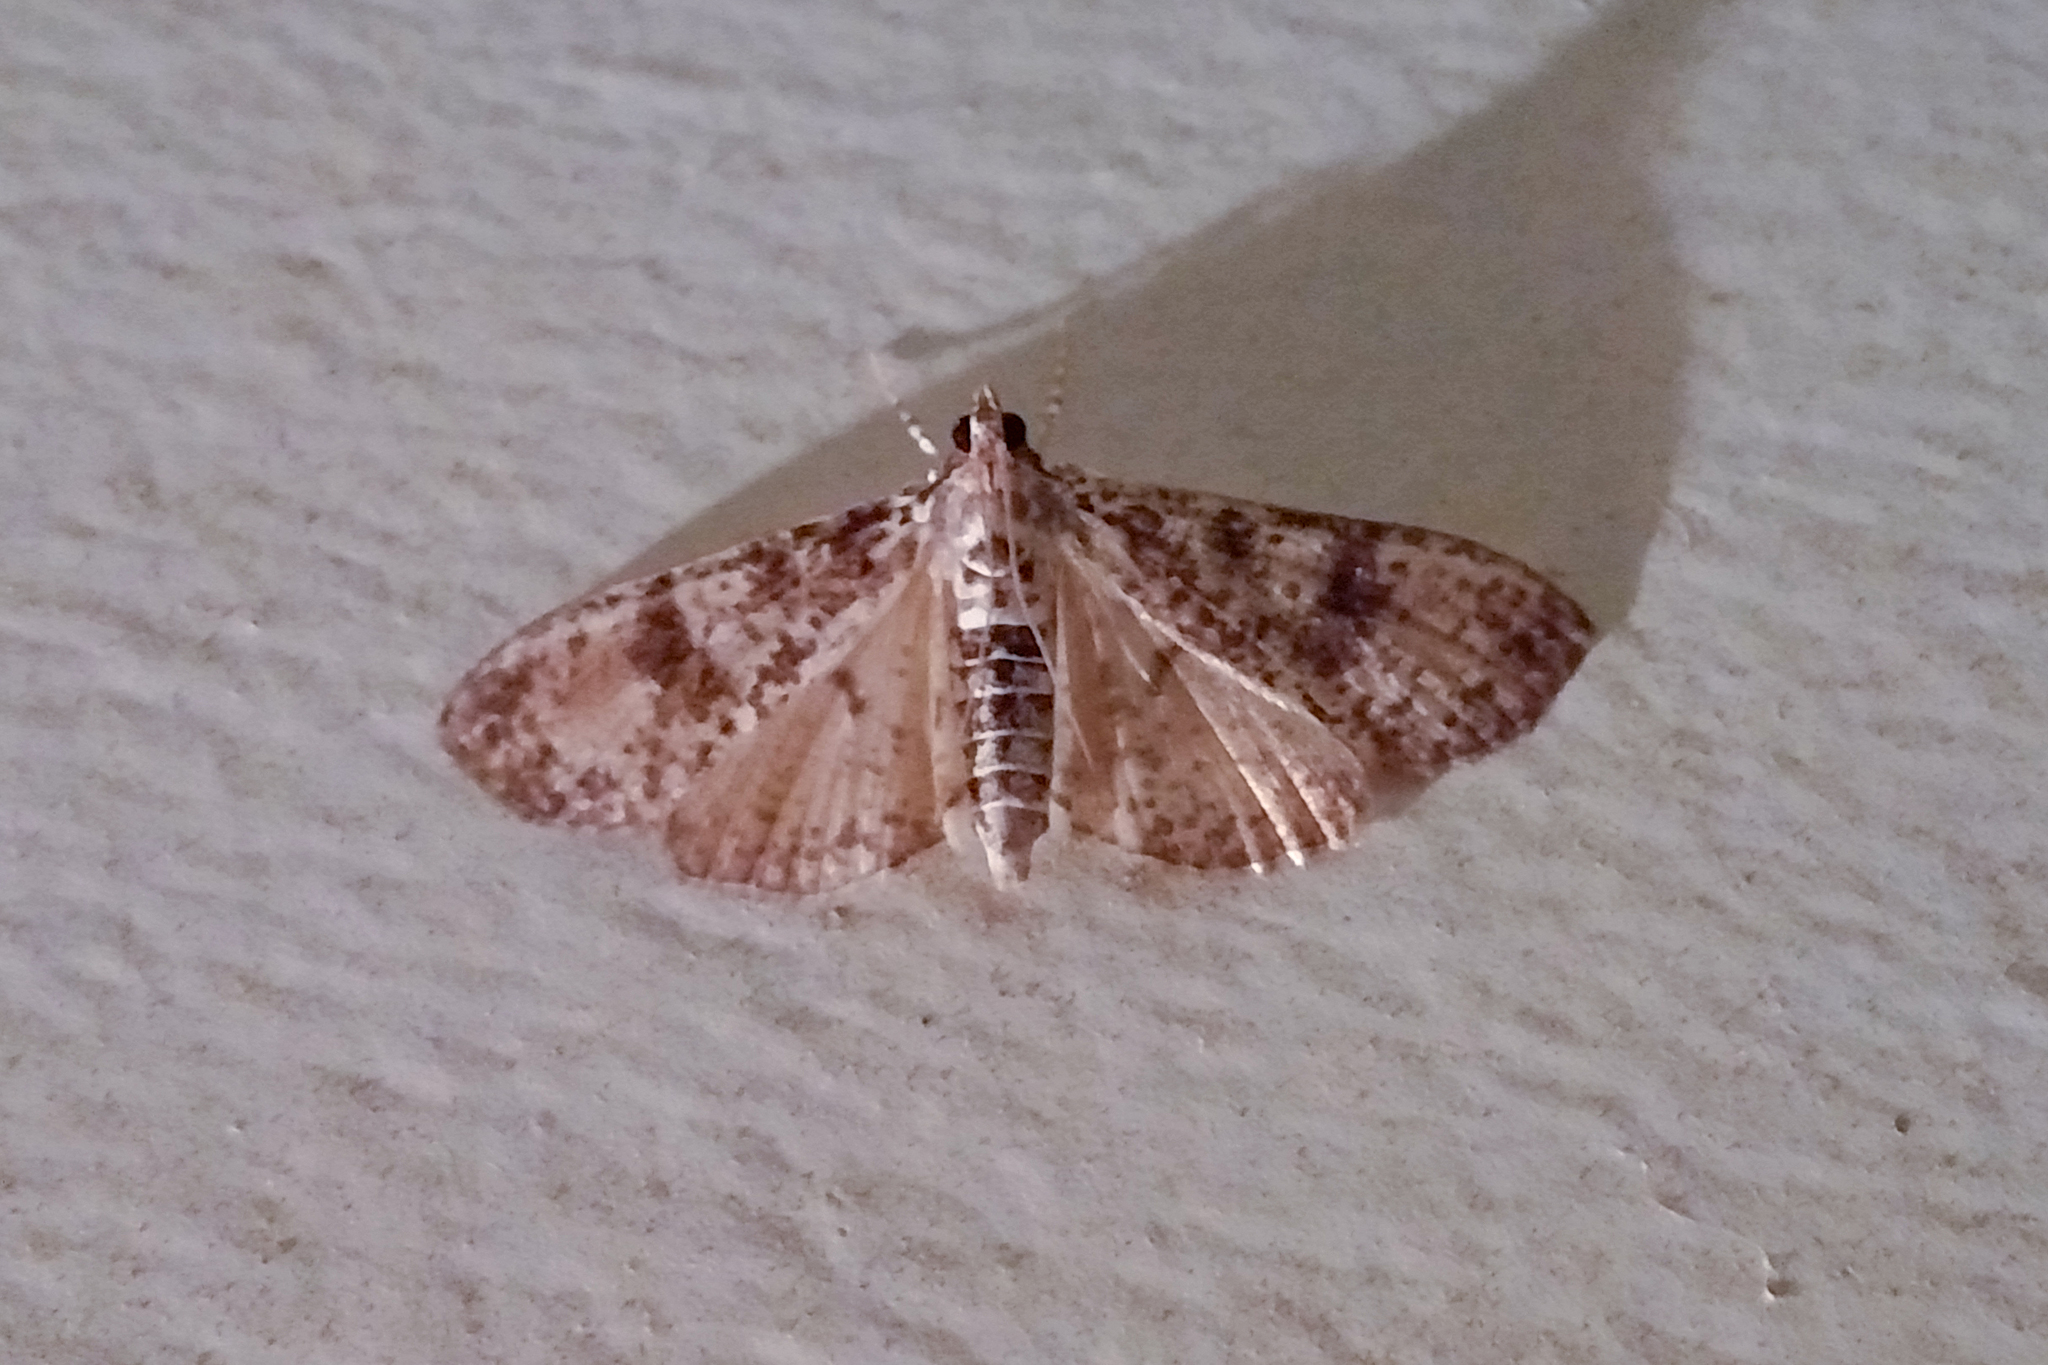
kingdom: Animalia
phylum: Arthropoda
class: Insecta
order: Lepidoptera
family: Crambidae
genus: Palpita
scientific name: Palpita magniferalis
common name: Splendid palpita moth
